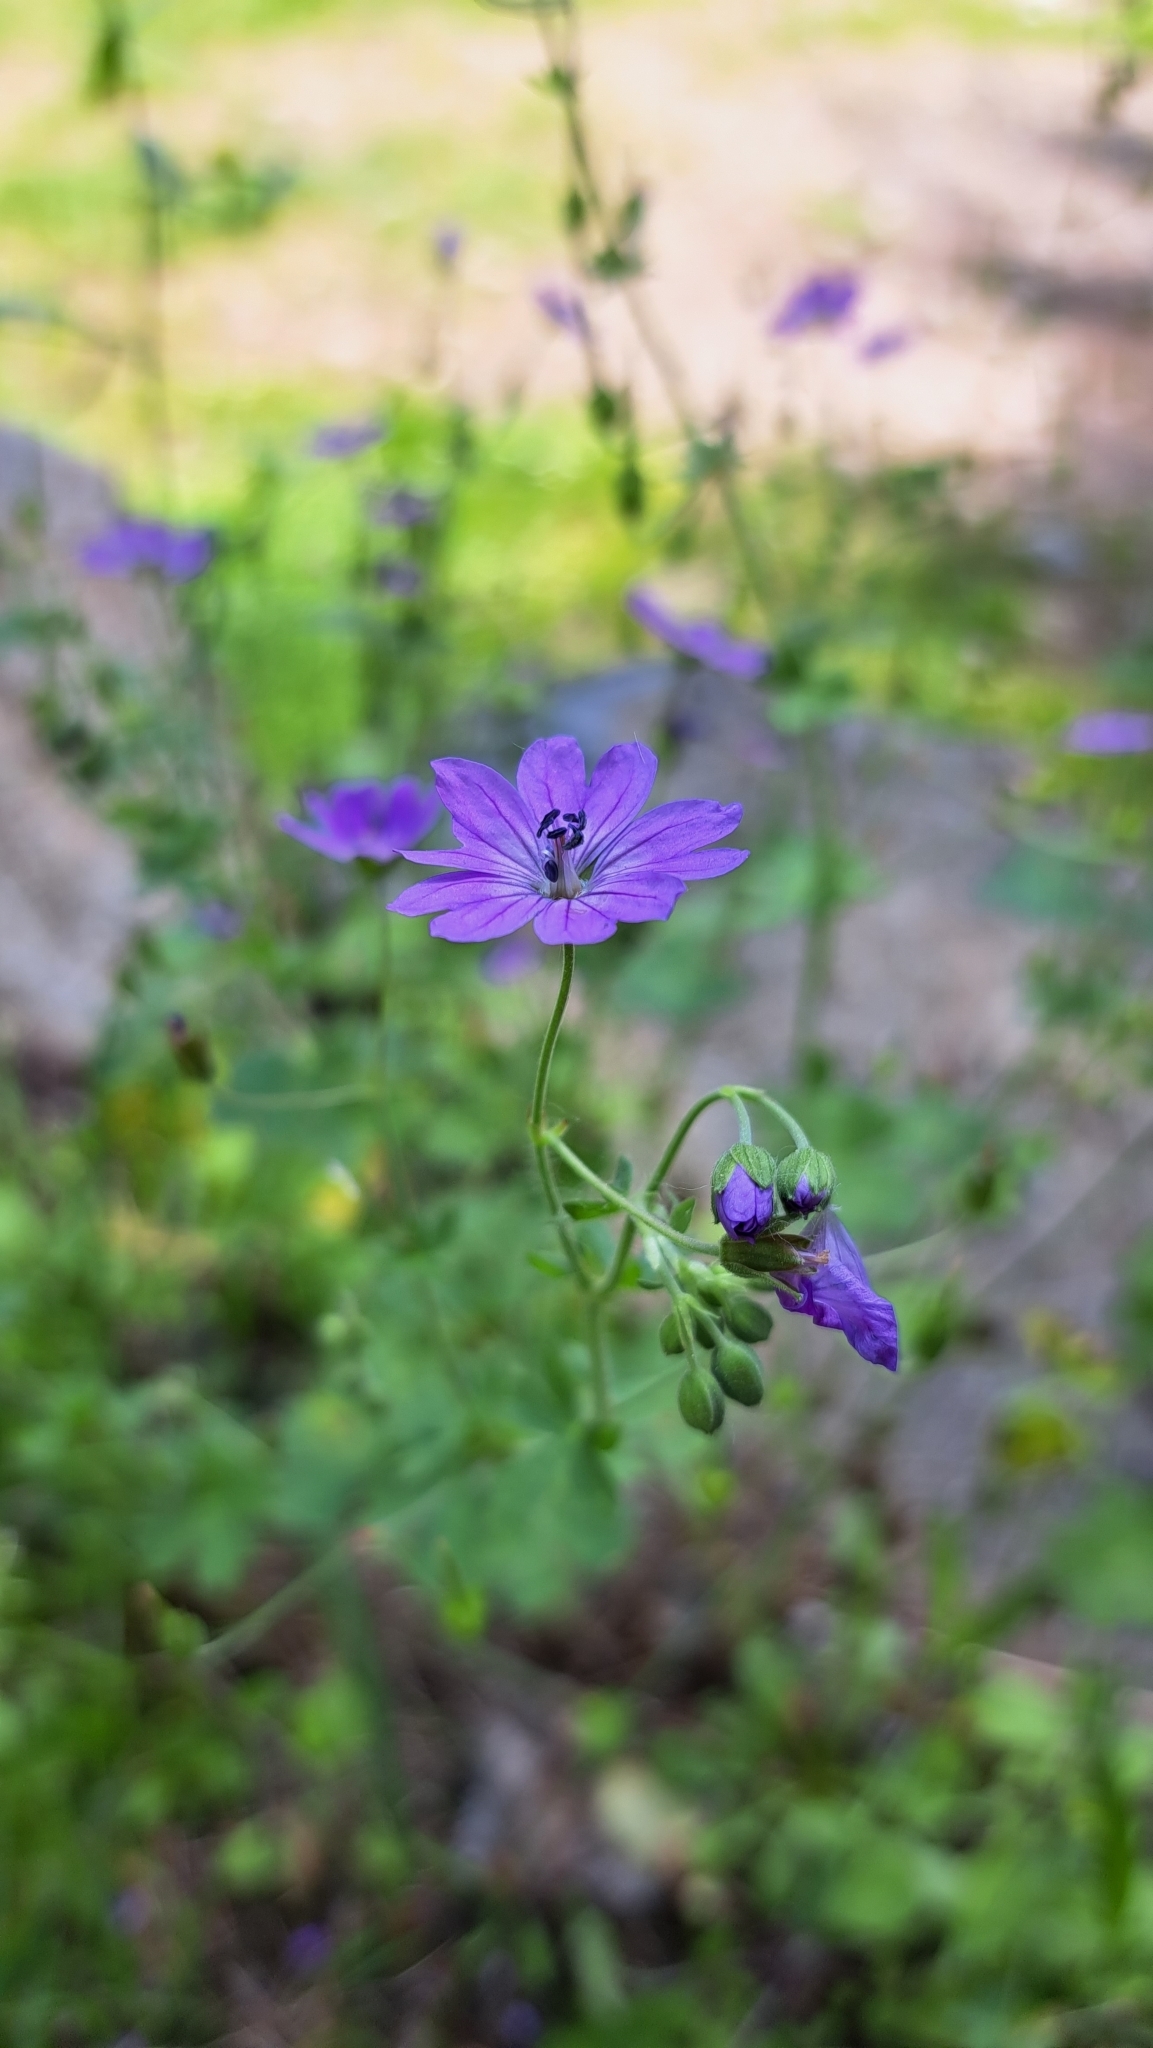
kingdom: Plantae
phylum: Tracheophyta
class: Magnoliopsida
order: Geraniales
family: Geraniaceae
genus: Geranium
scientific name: Geranium pyrenaicum
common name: Hedgerow crane's-bill
